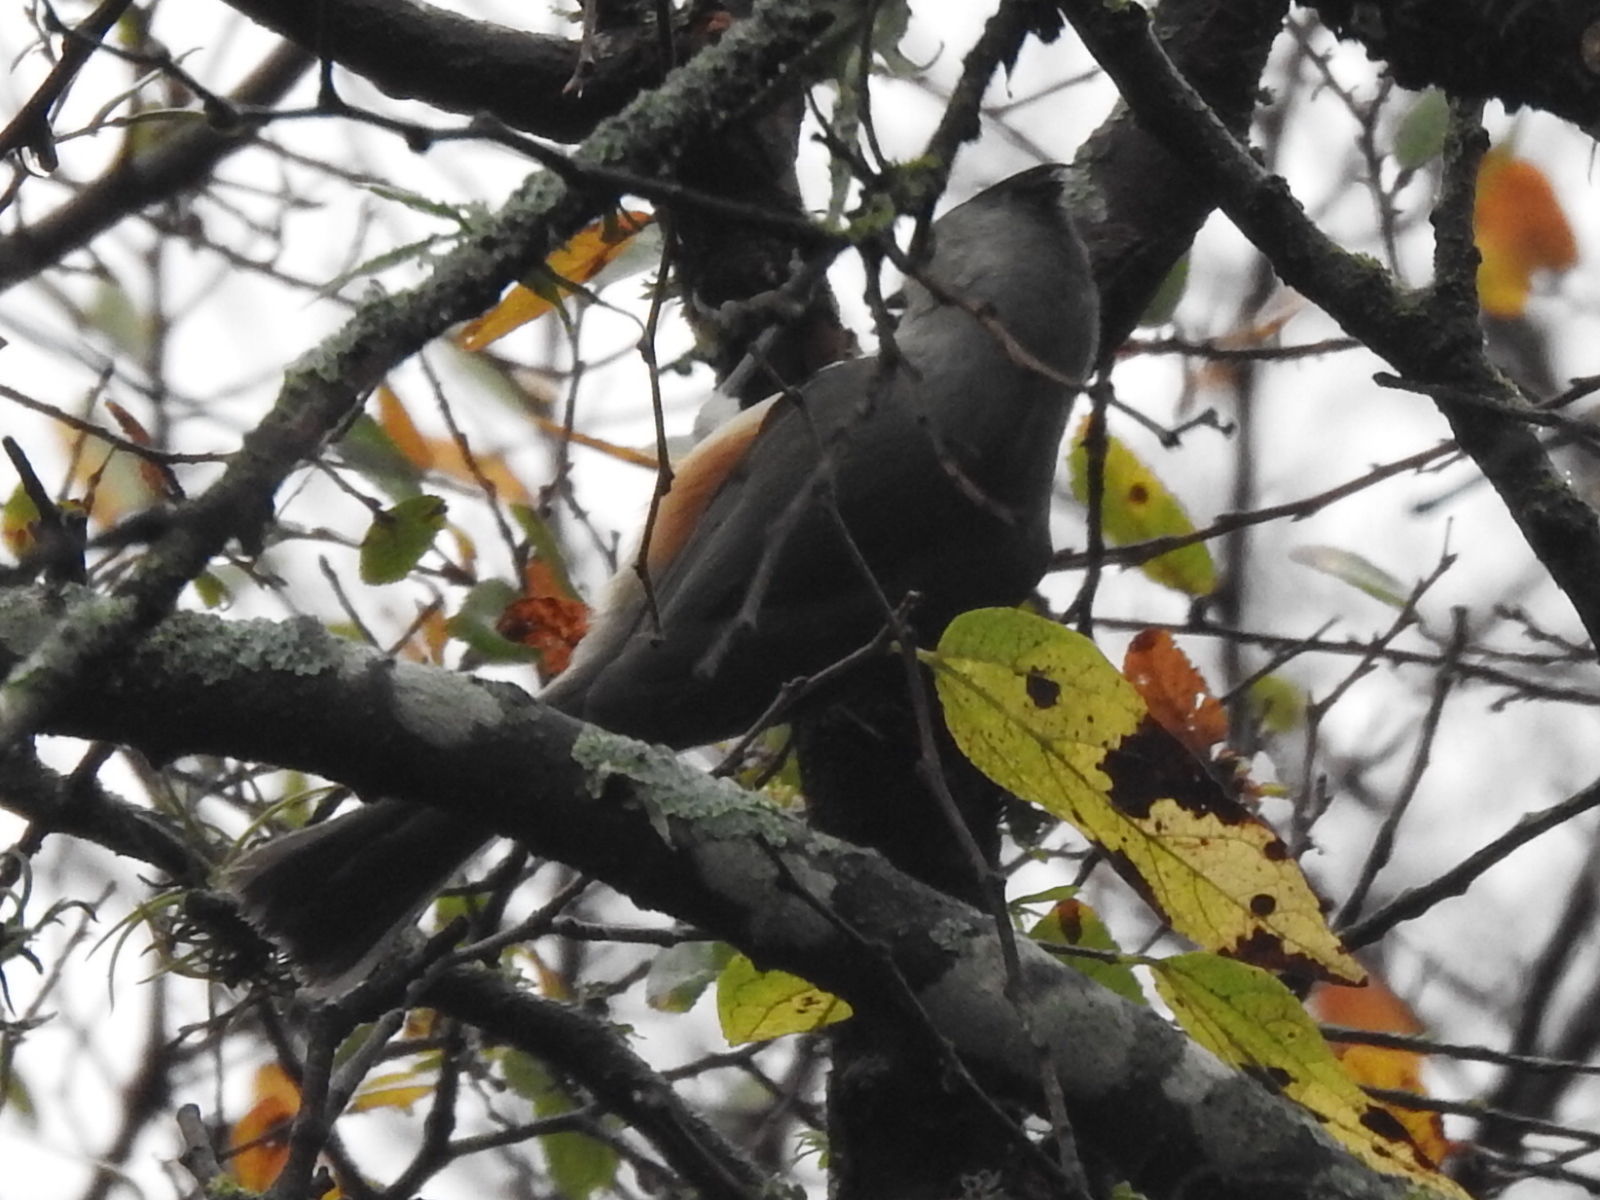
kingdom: Animalia
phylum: Chordata
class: Aves
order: Passeriformes
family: Paridae
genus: Baeolophus
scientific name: Baeolophus atricristatus
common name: Black-crested titmouse
